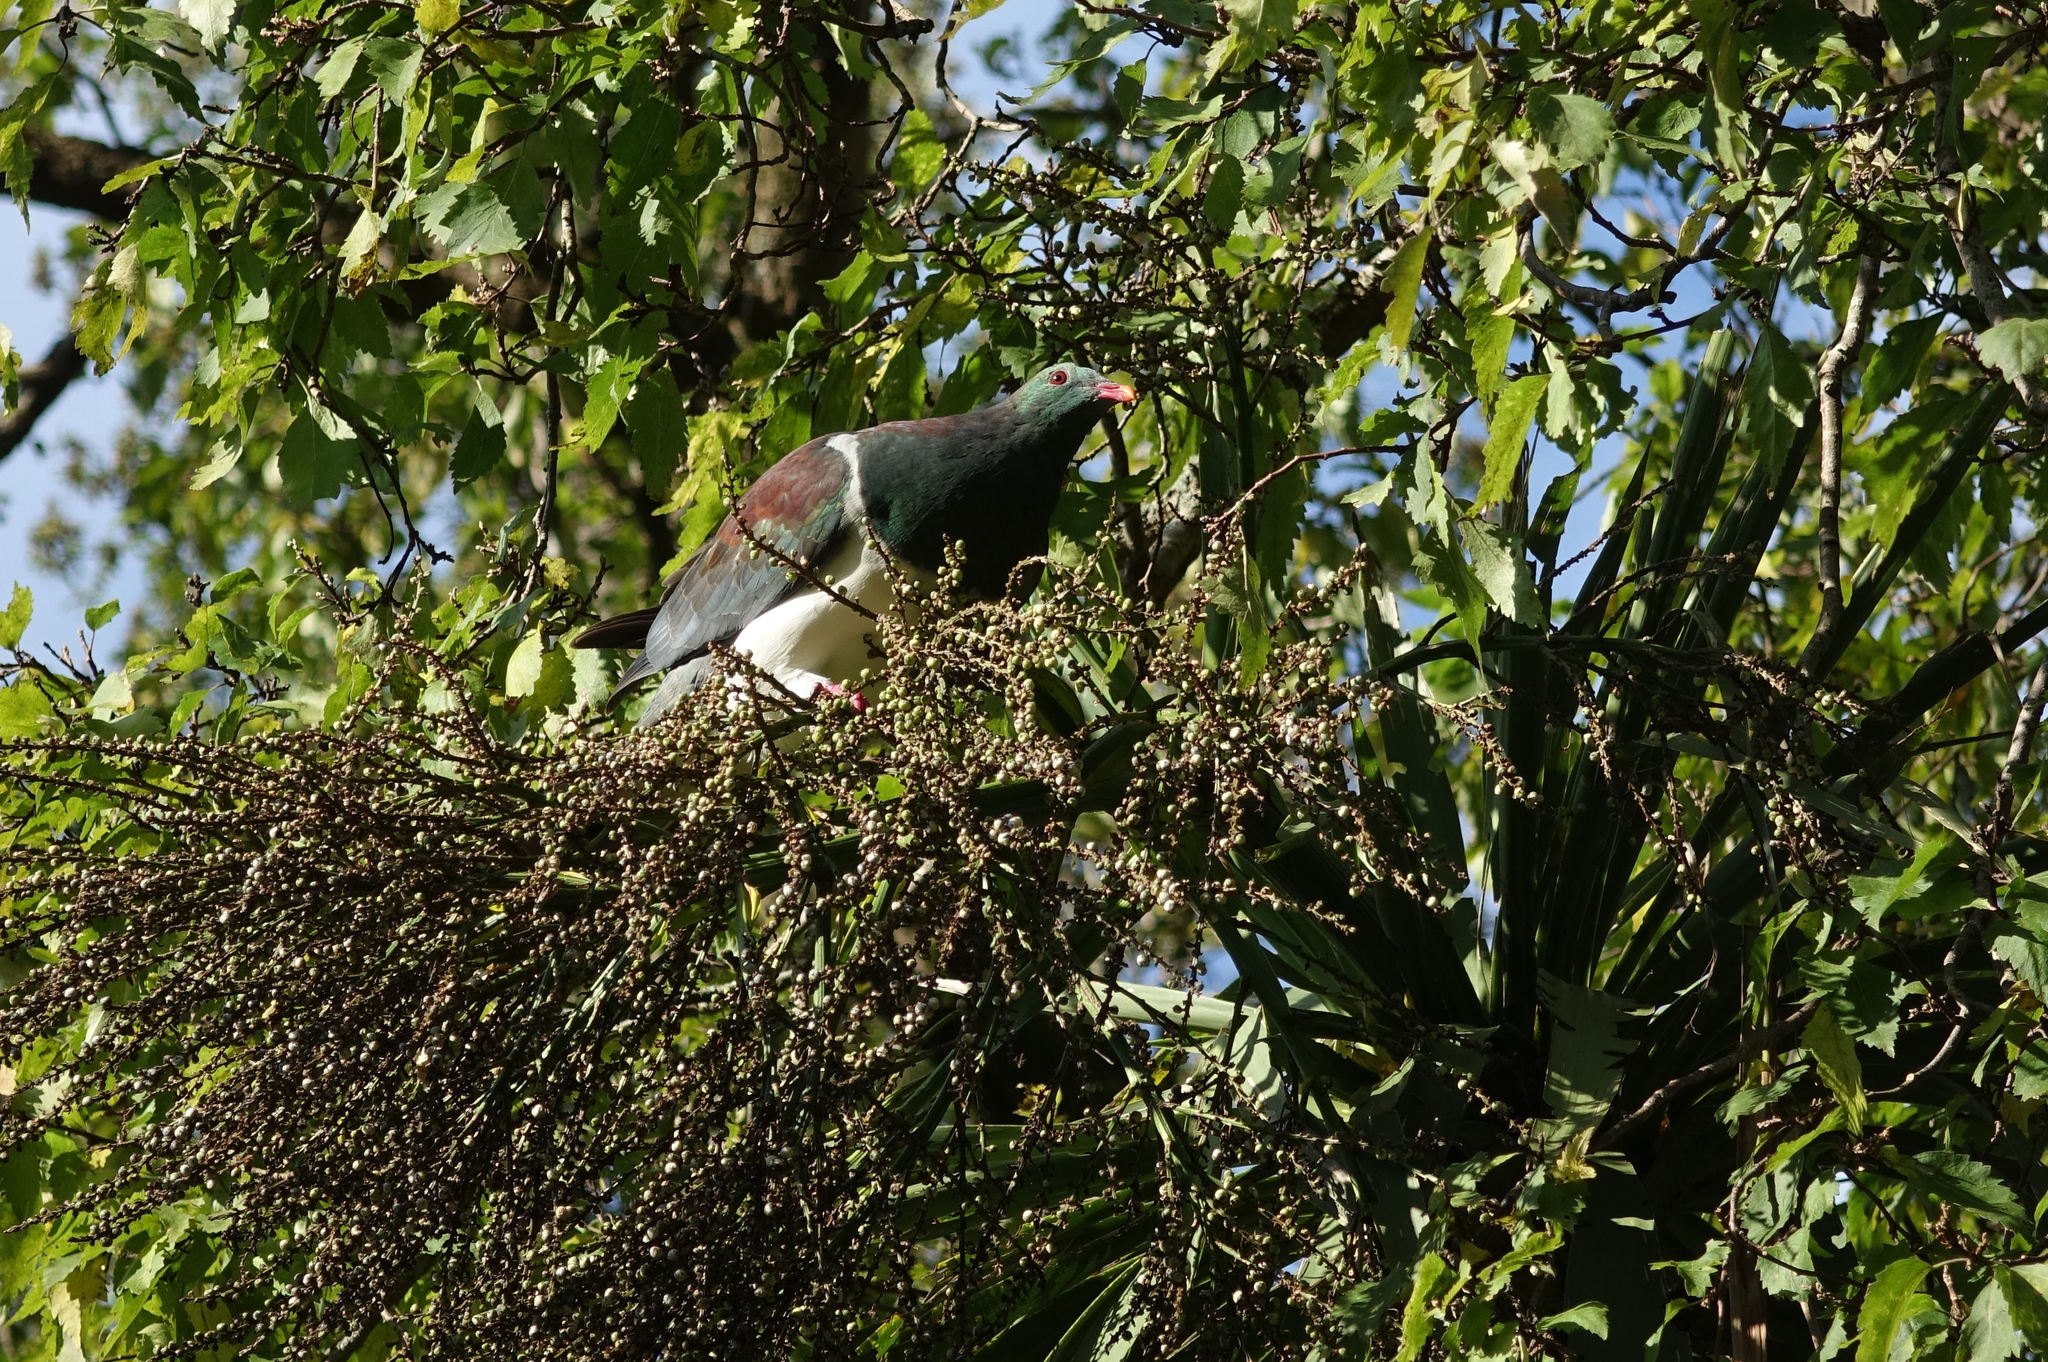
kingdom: Animalia
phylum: Chordata
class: Aves
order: Columbiformes
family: Columbidae
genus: Hemiphaga
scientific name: Hemiphaga novaeseelandiae
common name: New zealand pigeon
